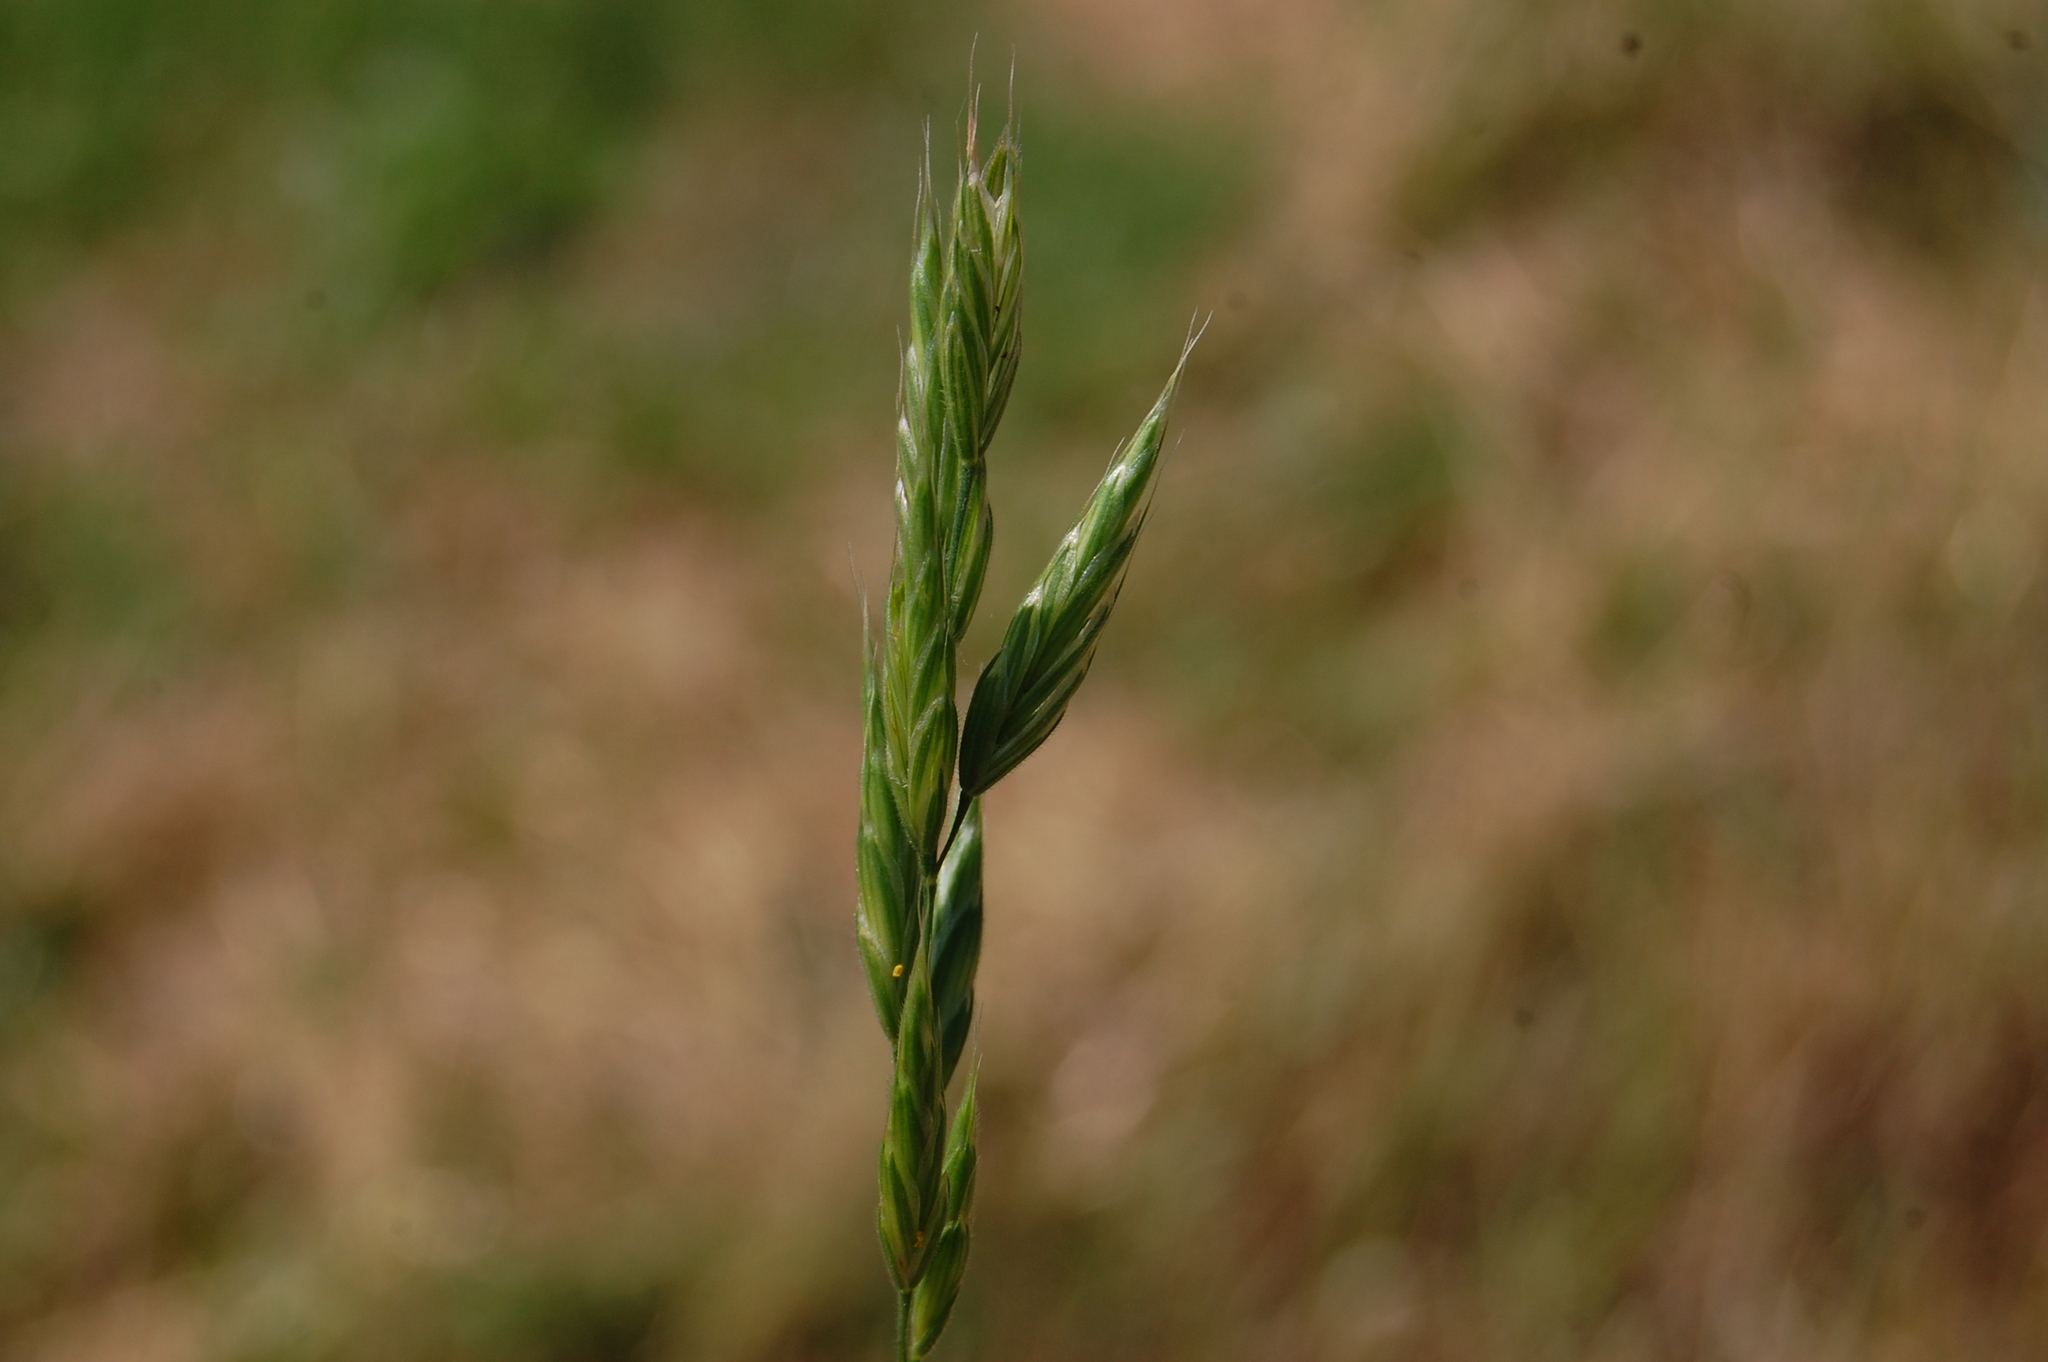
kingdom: Plantae
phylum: Tracheophyta
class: Liliopsida
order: Poales
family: Poaceae
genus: Bromus
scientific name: Bromus hordeaceus
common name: Soft brome
